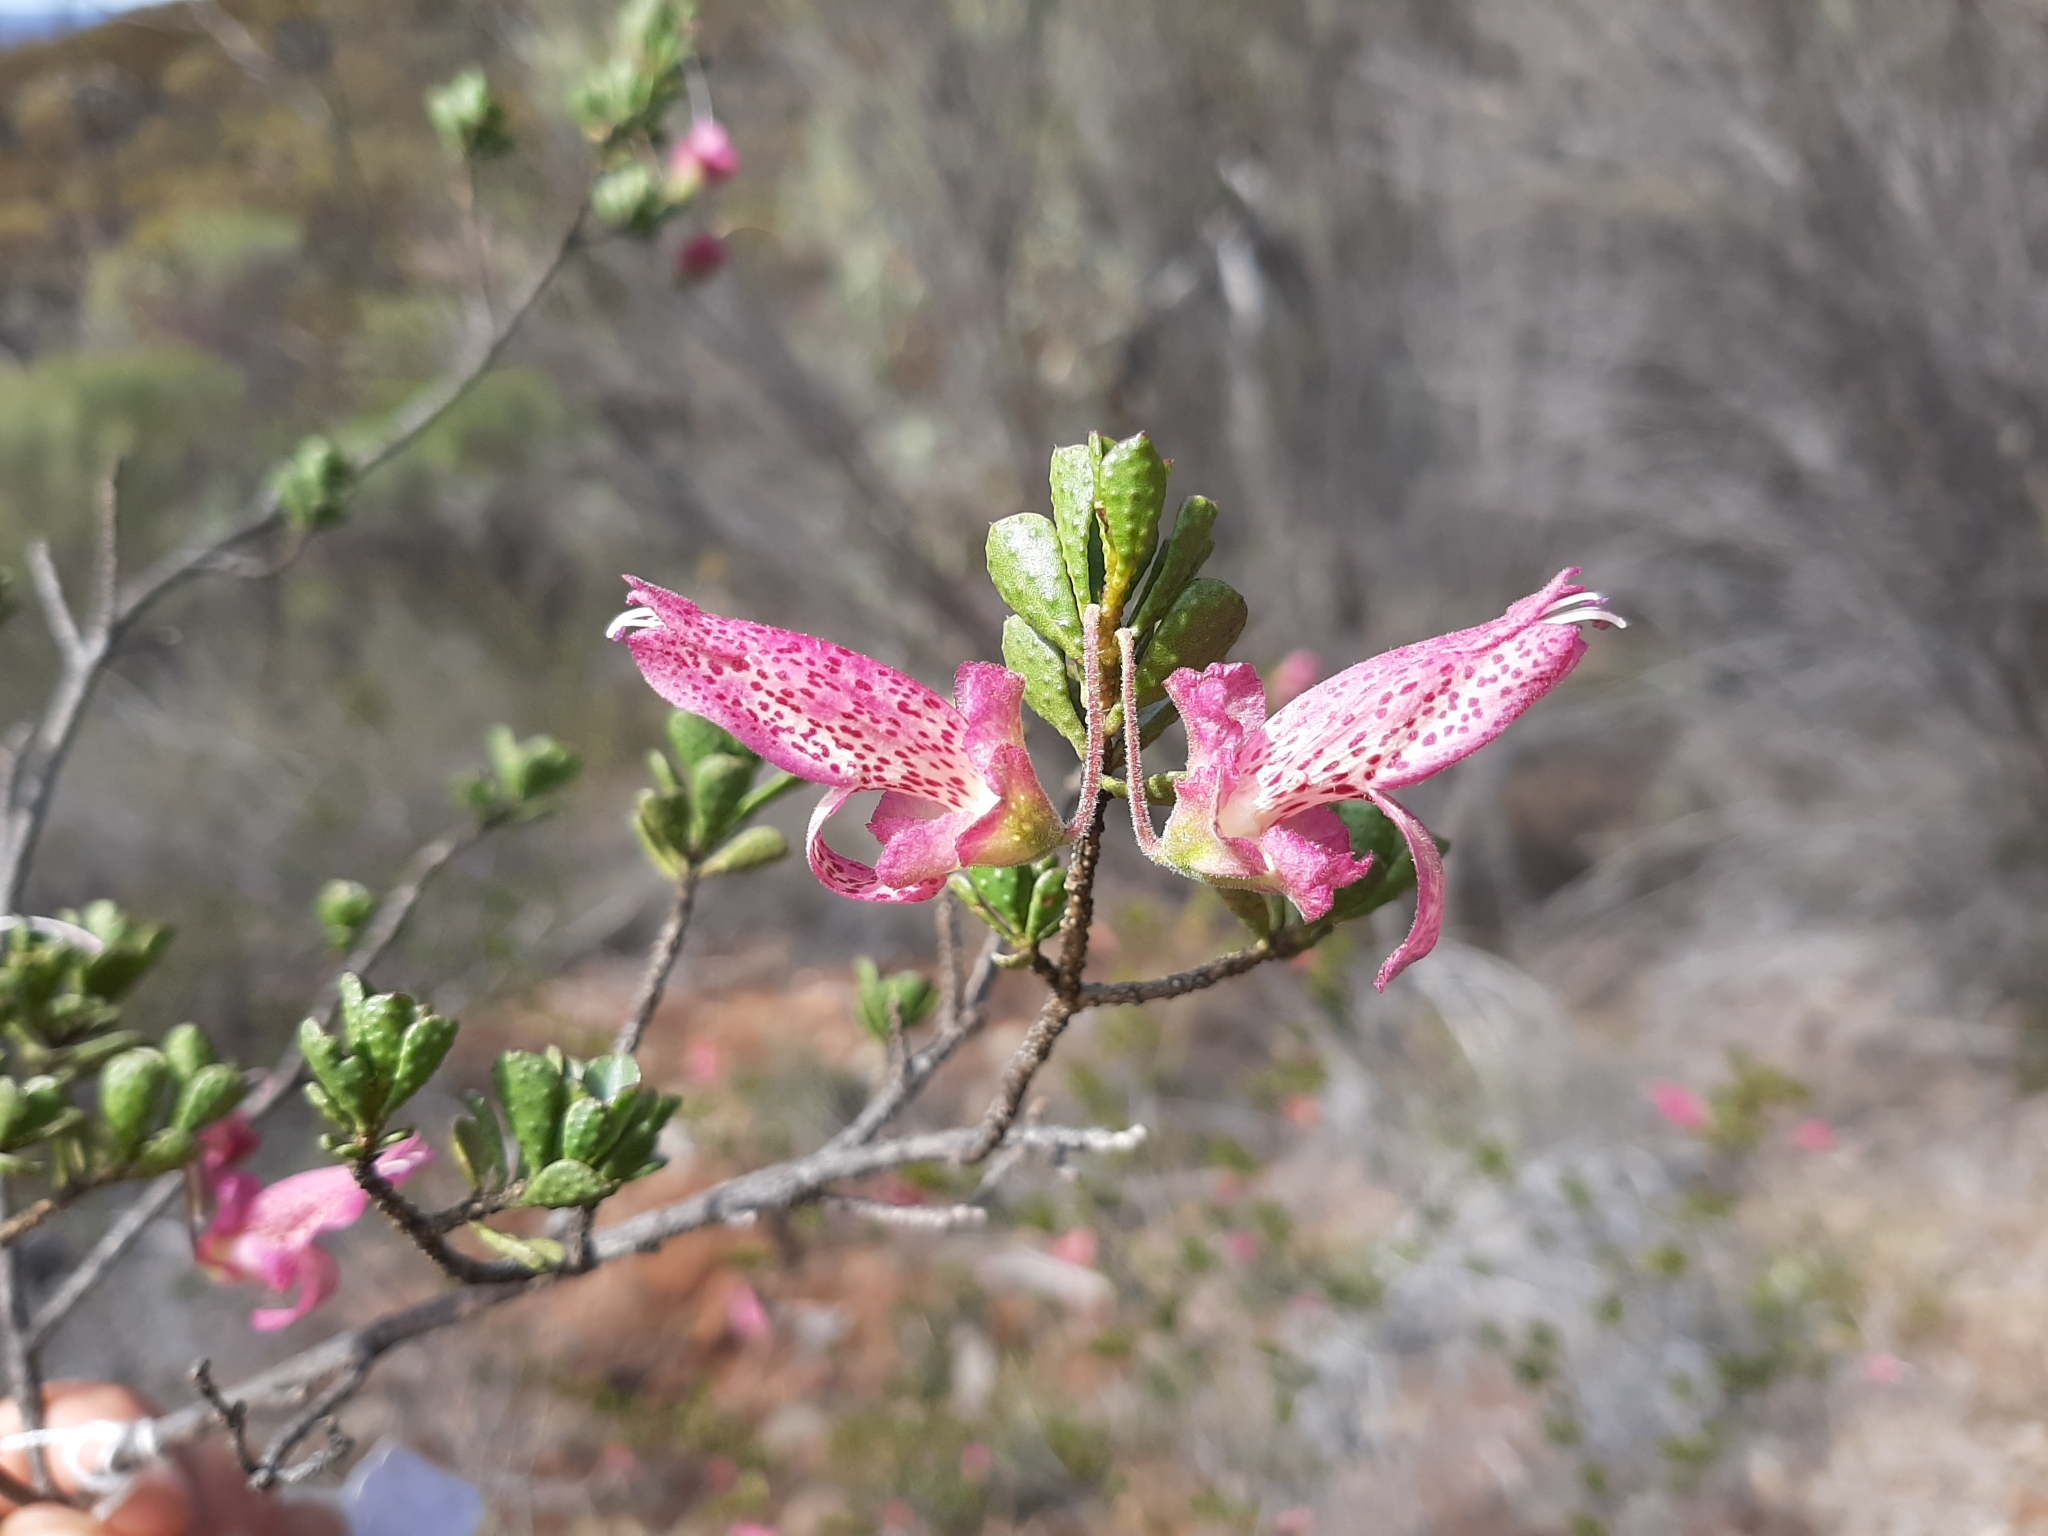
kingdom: Plantae
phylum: Tracheophyta
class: Magnoliopsida
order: Lamiales
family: Scrophulariaceae
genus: Eremophila
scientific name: Eremophila purpurascens
